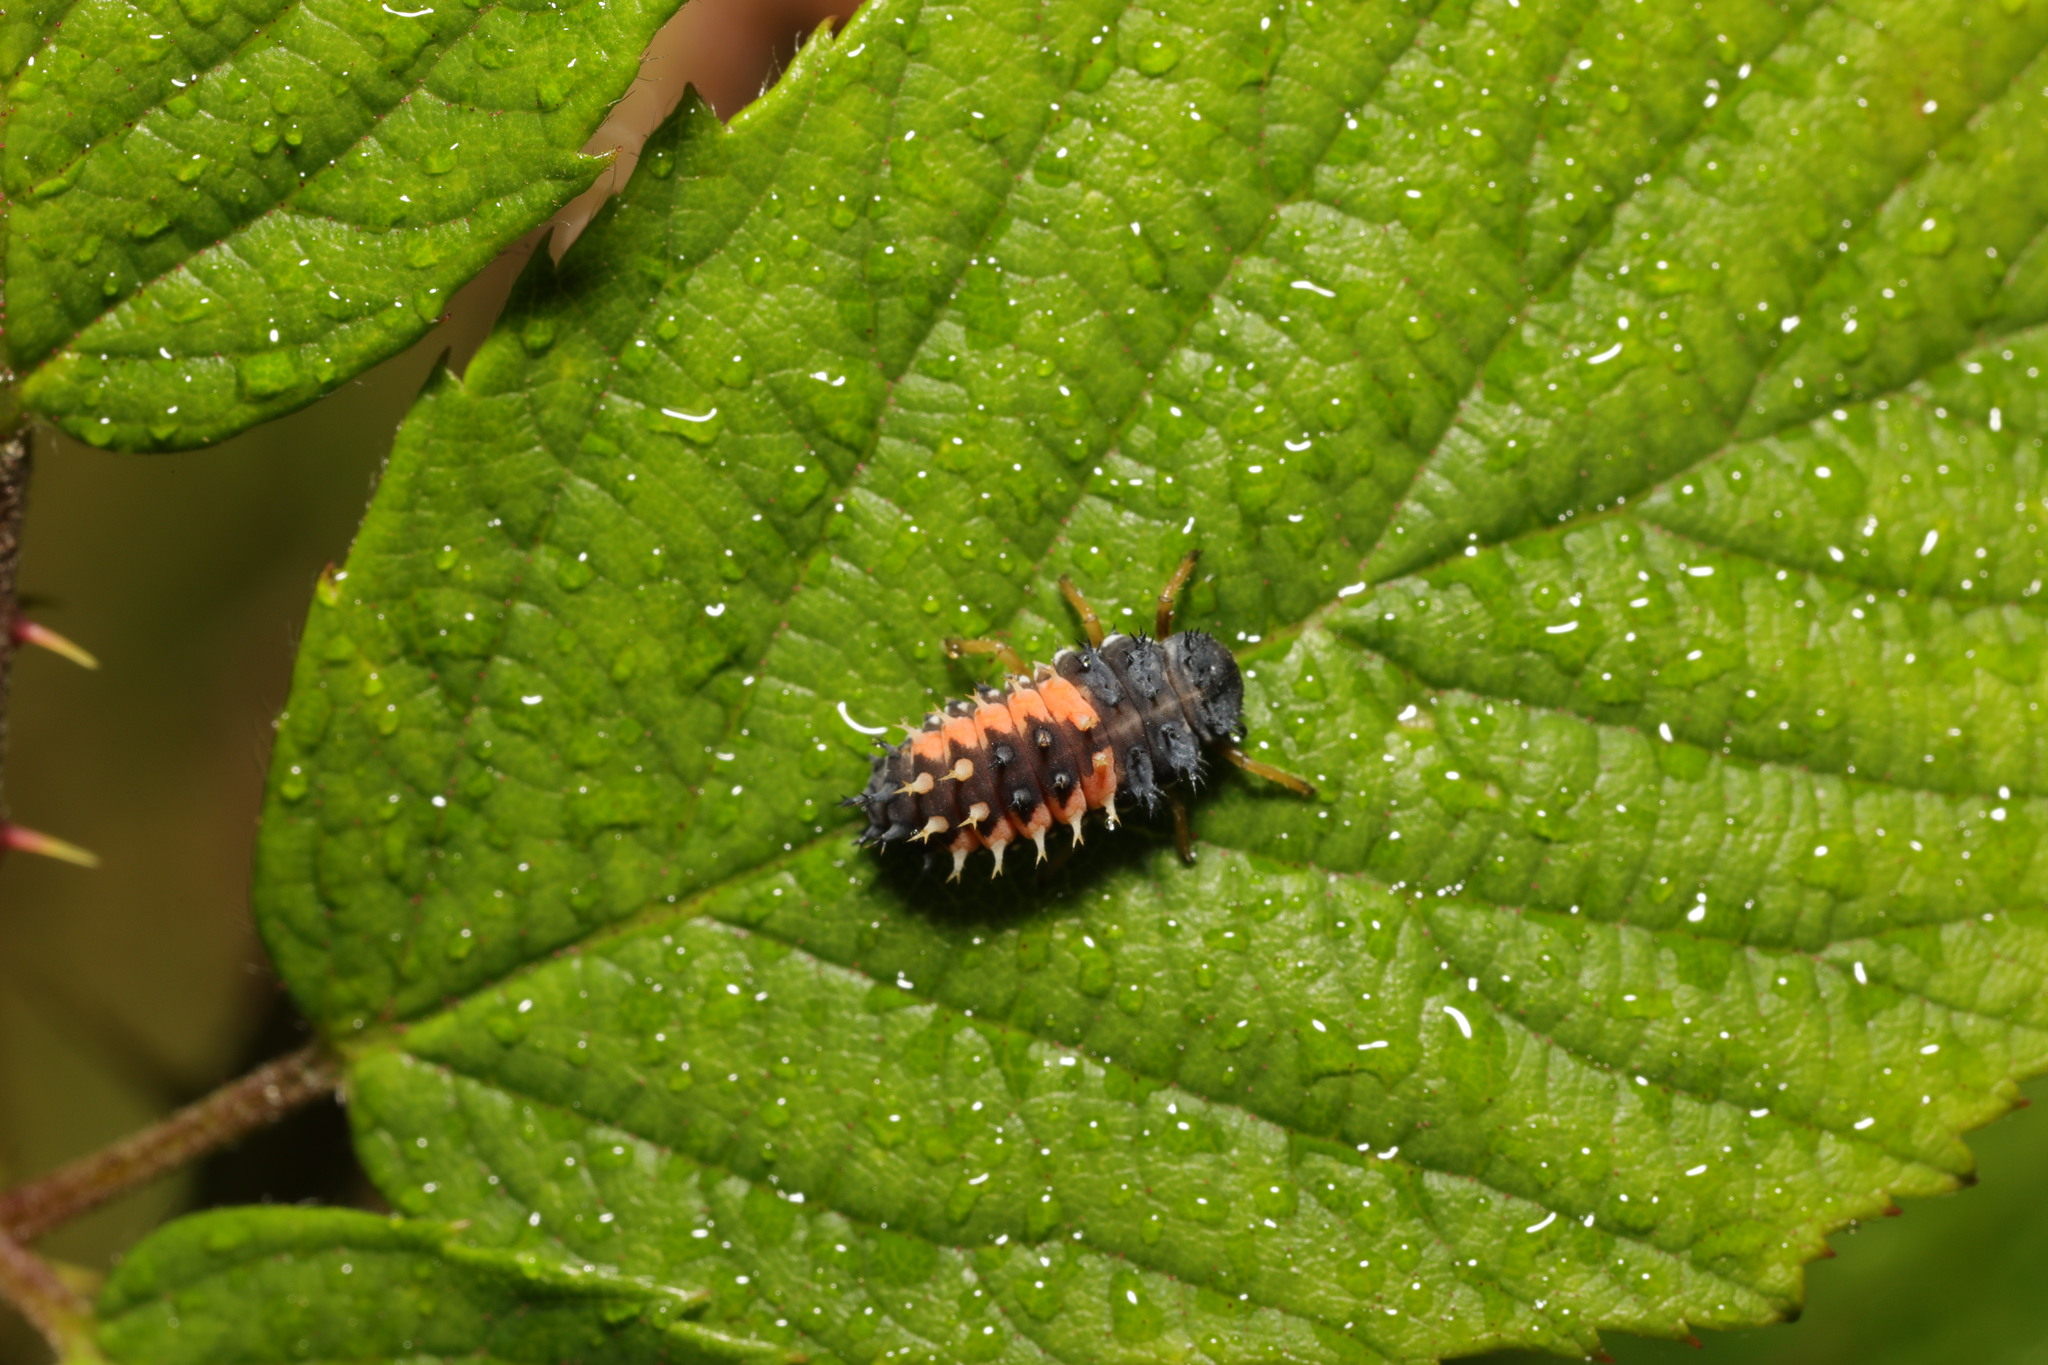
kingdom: Animalia
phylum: Arthropoda
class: Insecta
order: Coleoptera
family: Coccinellidae
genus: Harmonia
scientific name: Harmonia axyridis
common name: Harlequin ladybird
